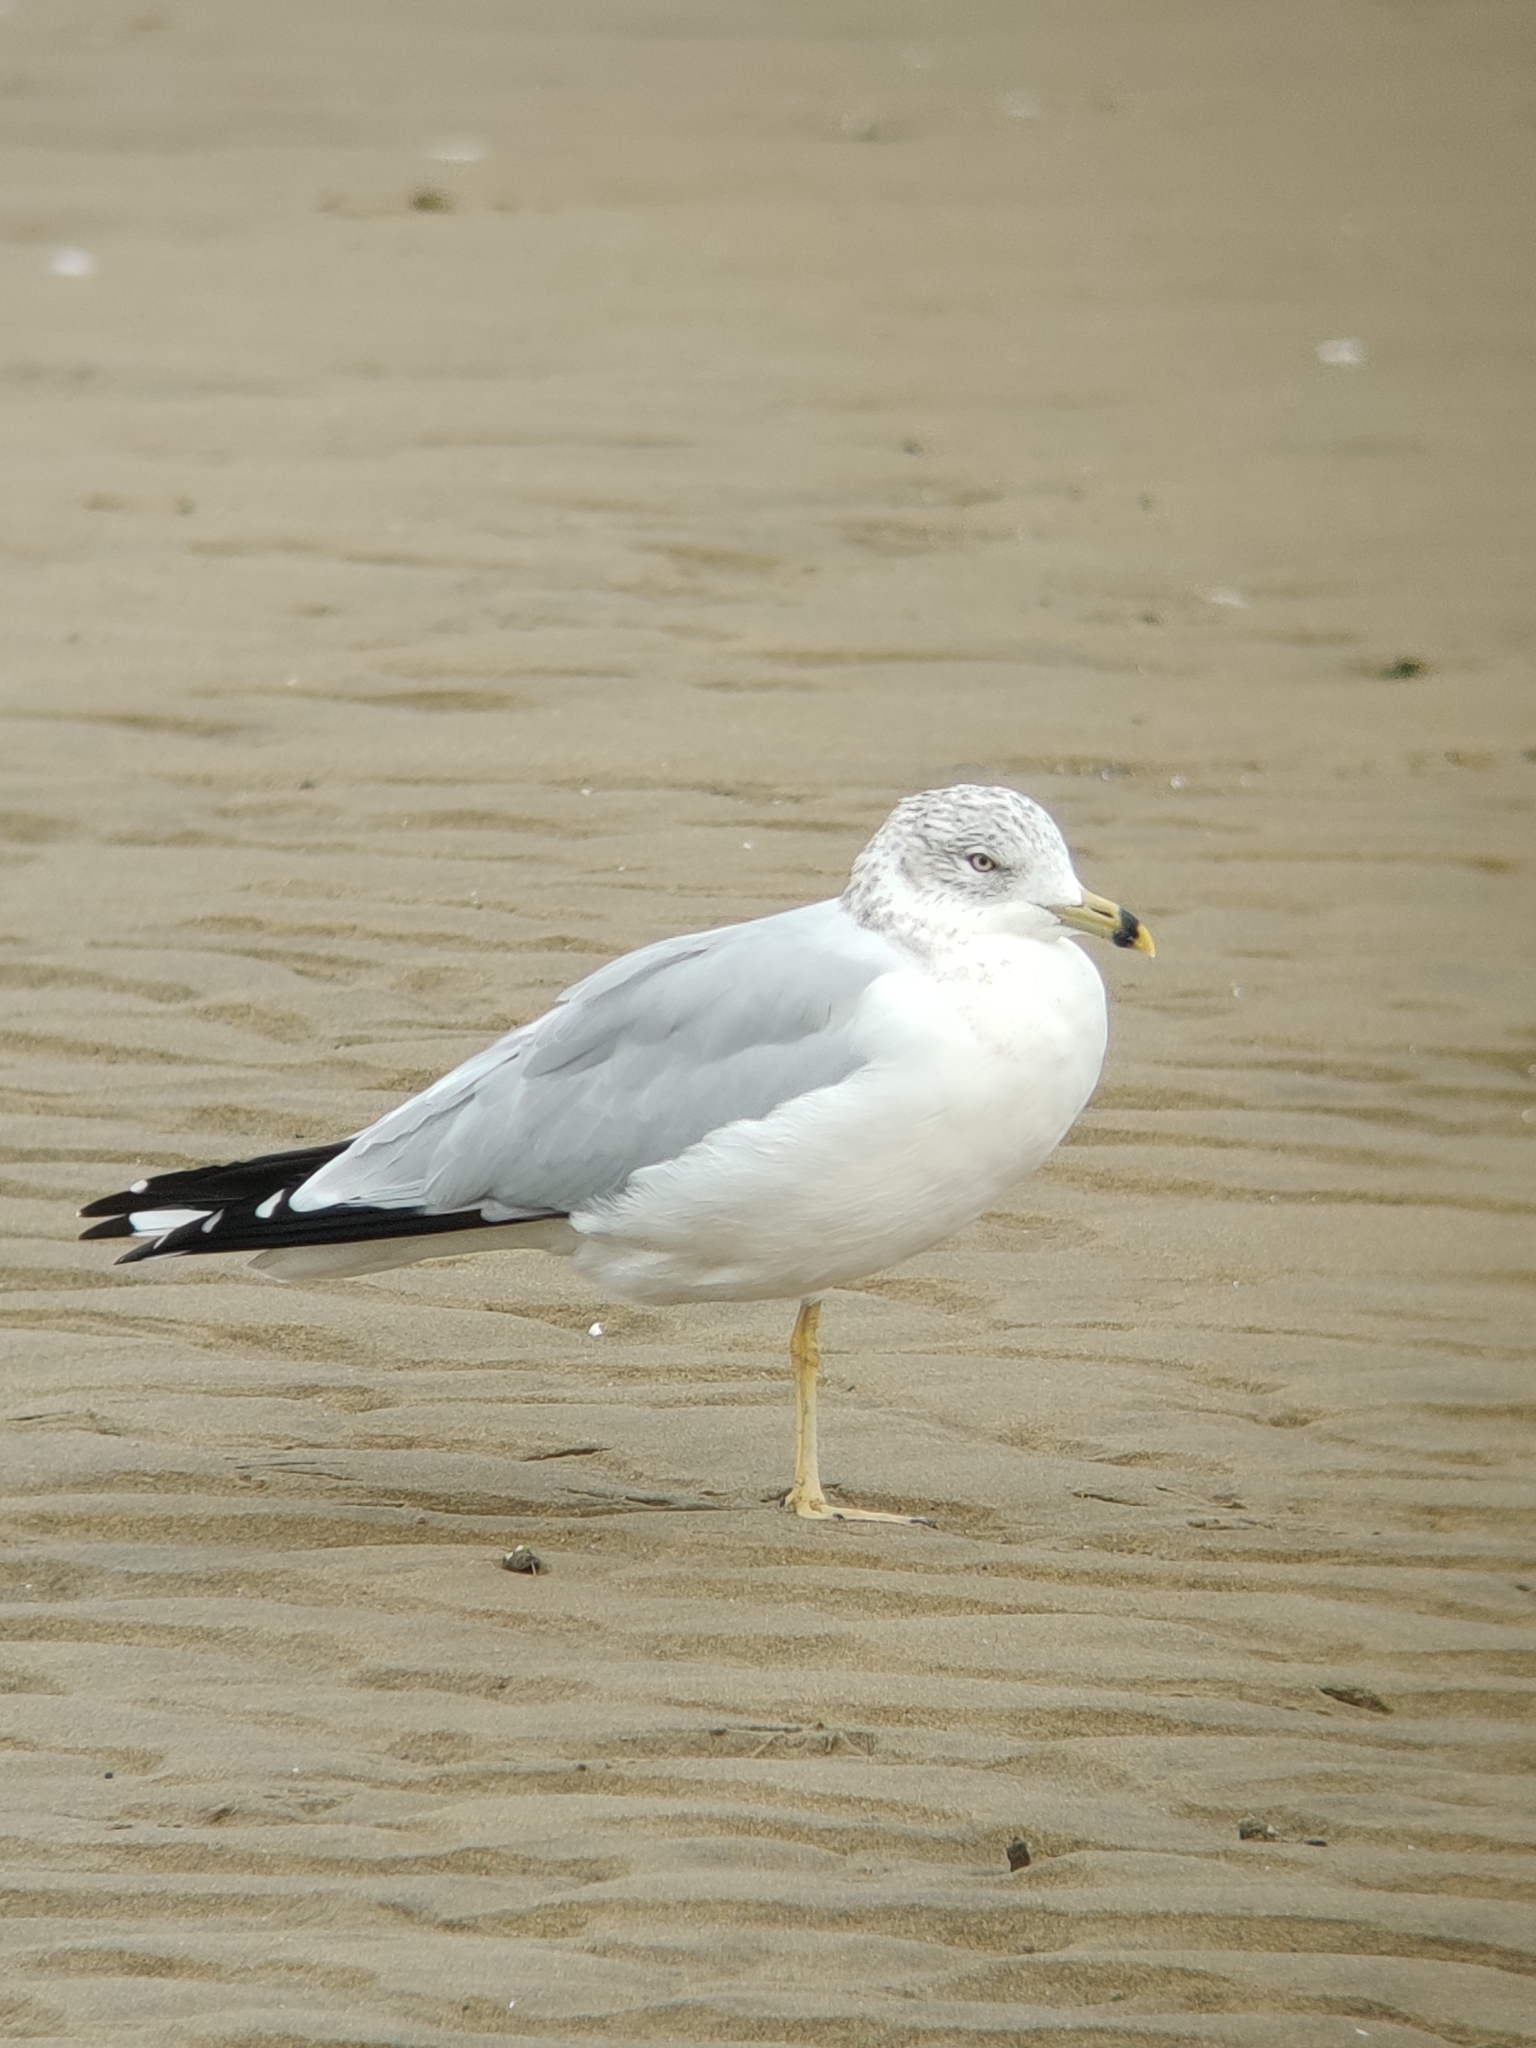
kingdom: Animalia
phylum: Chordata
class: Aves
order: Charadriiformes
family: Laridae
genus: Larus
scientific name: Larus delawarensis
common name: Ring-billed gull
